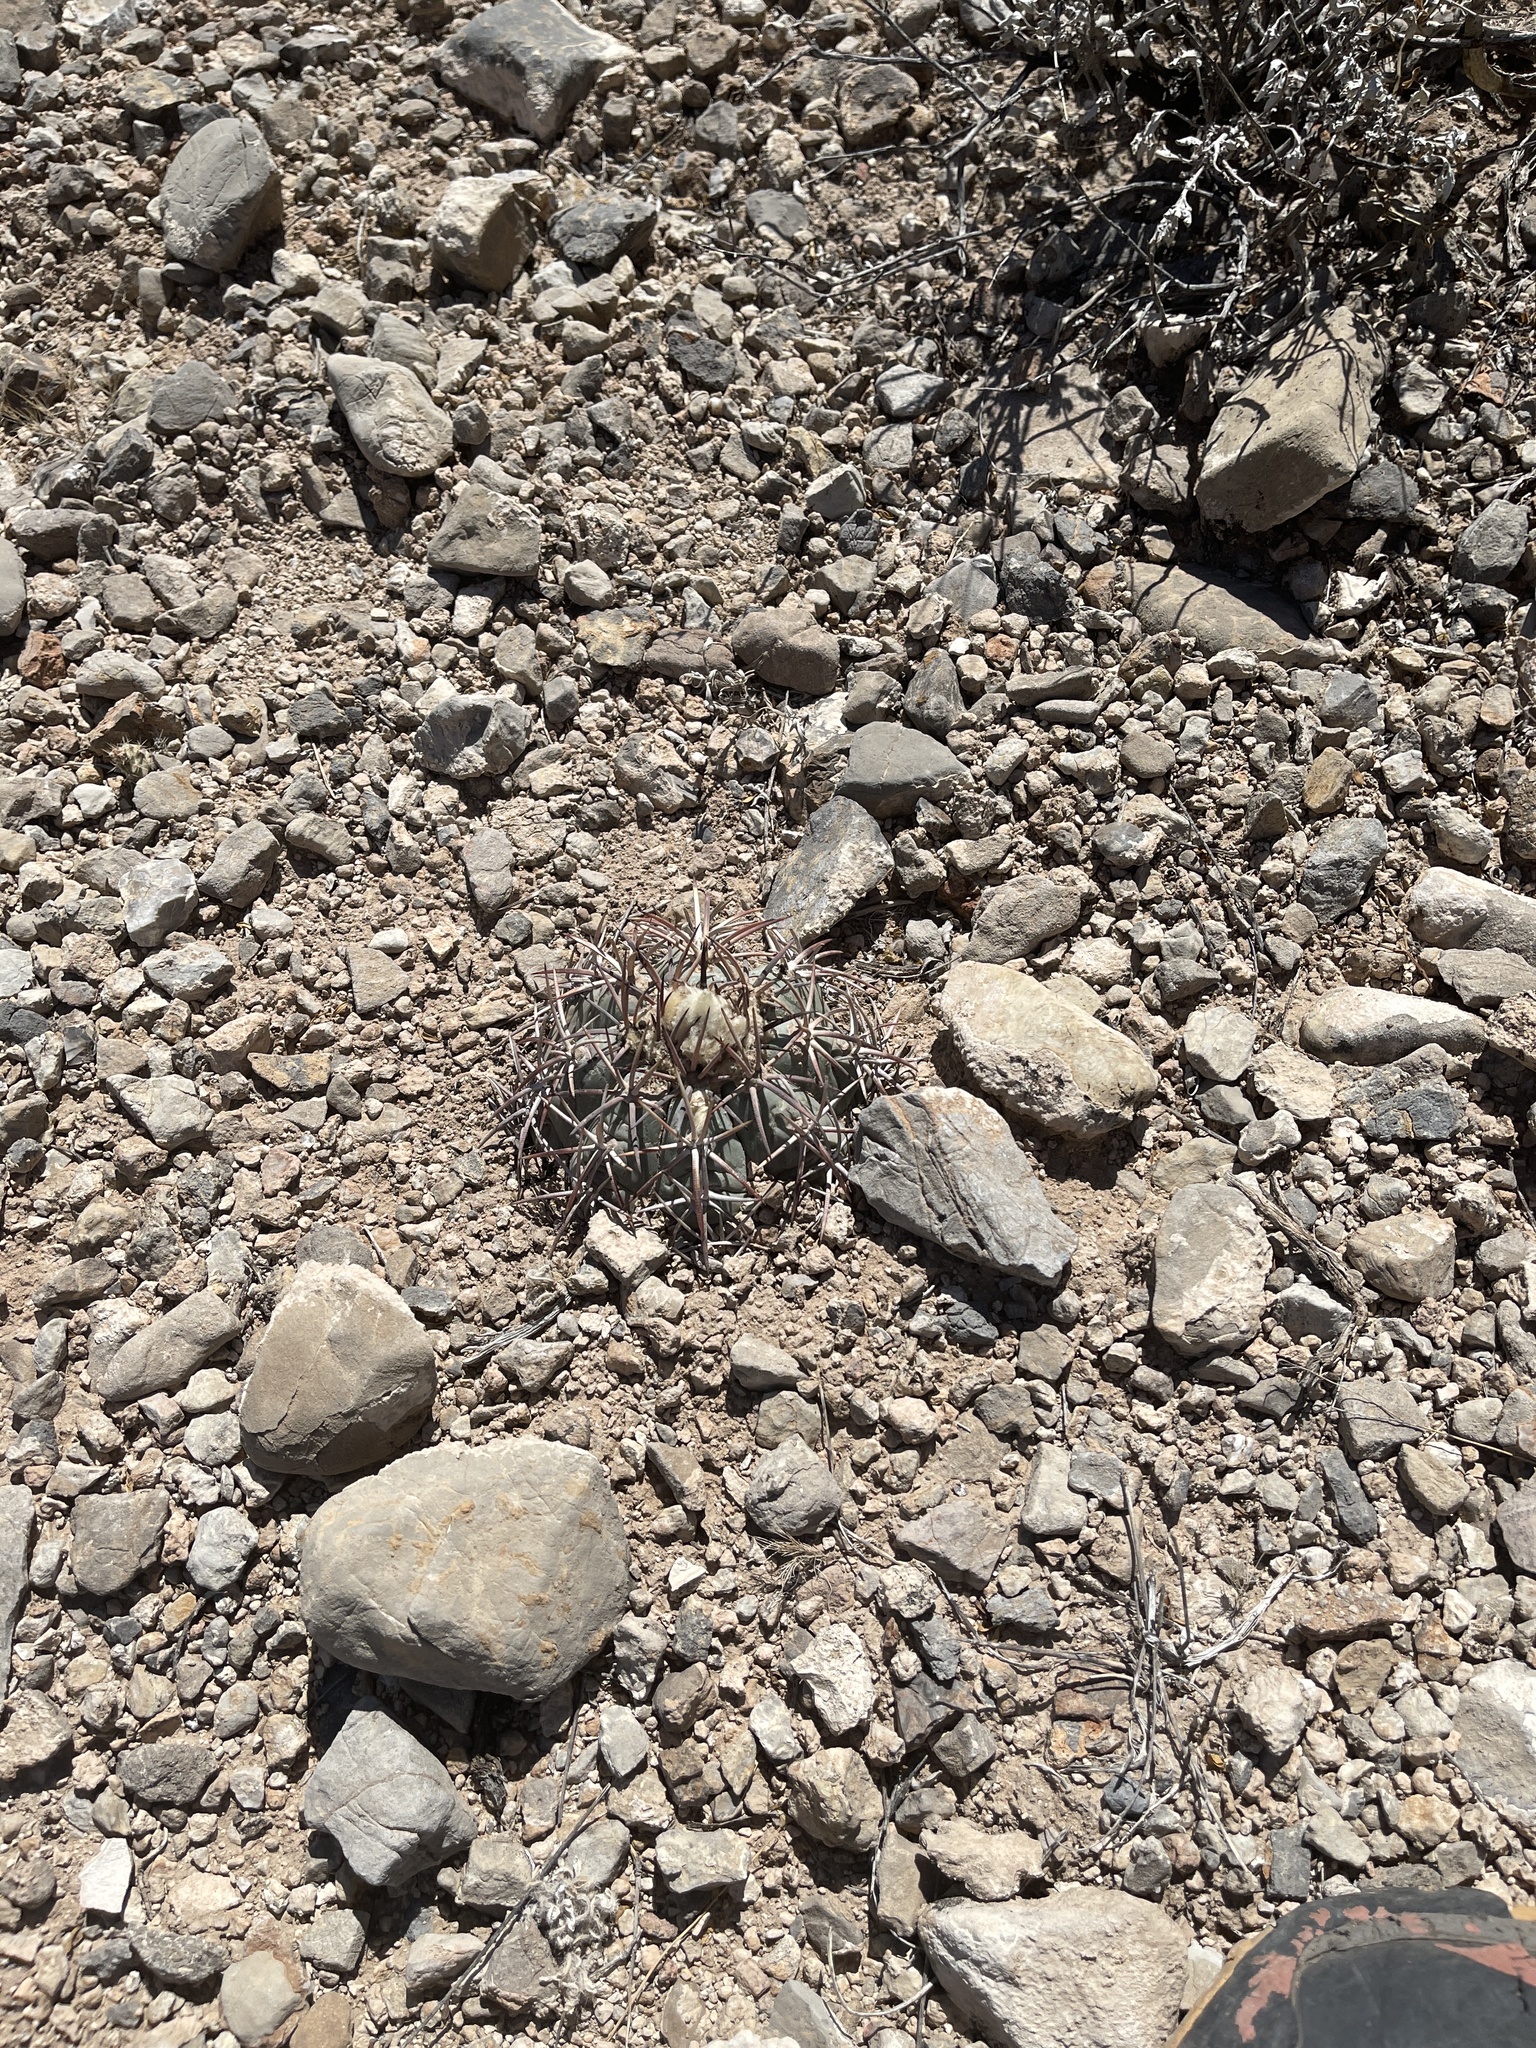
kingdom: Plantae
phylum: Tracheophyta
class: Magnoliopsida
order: Zygophyllales
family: Zygophyllaceae
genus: Larrea
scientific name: Larrea tridentata
